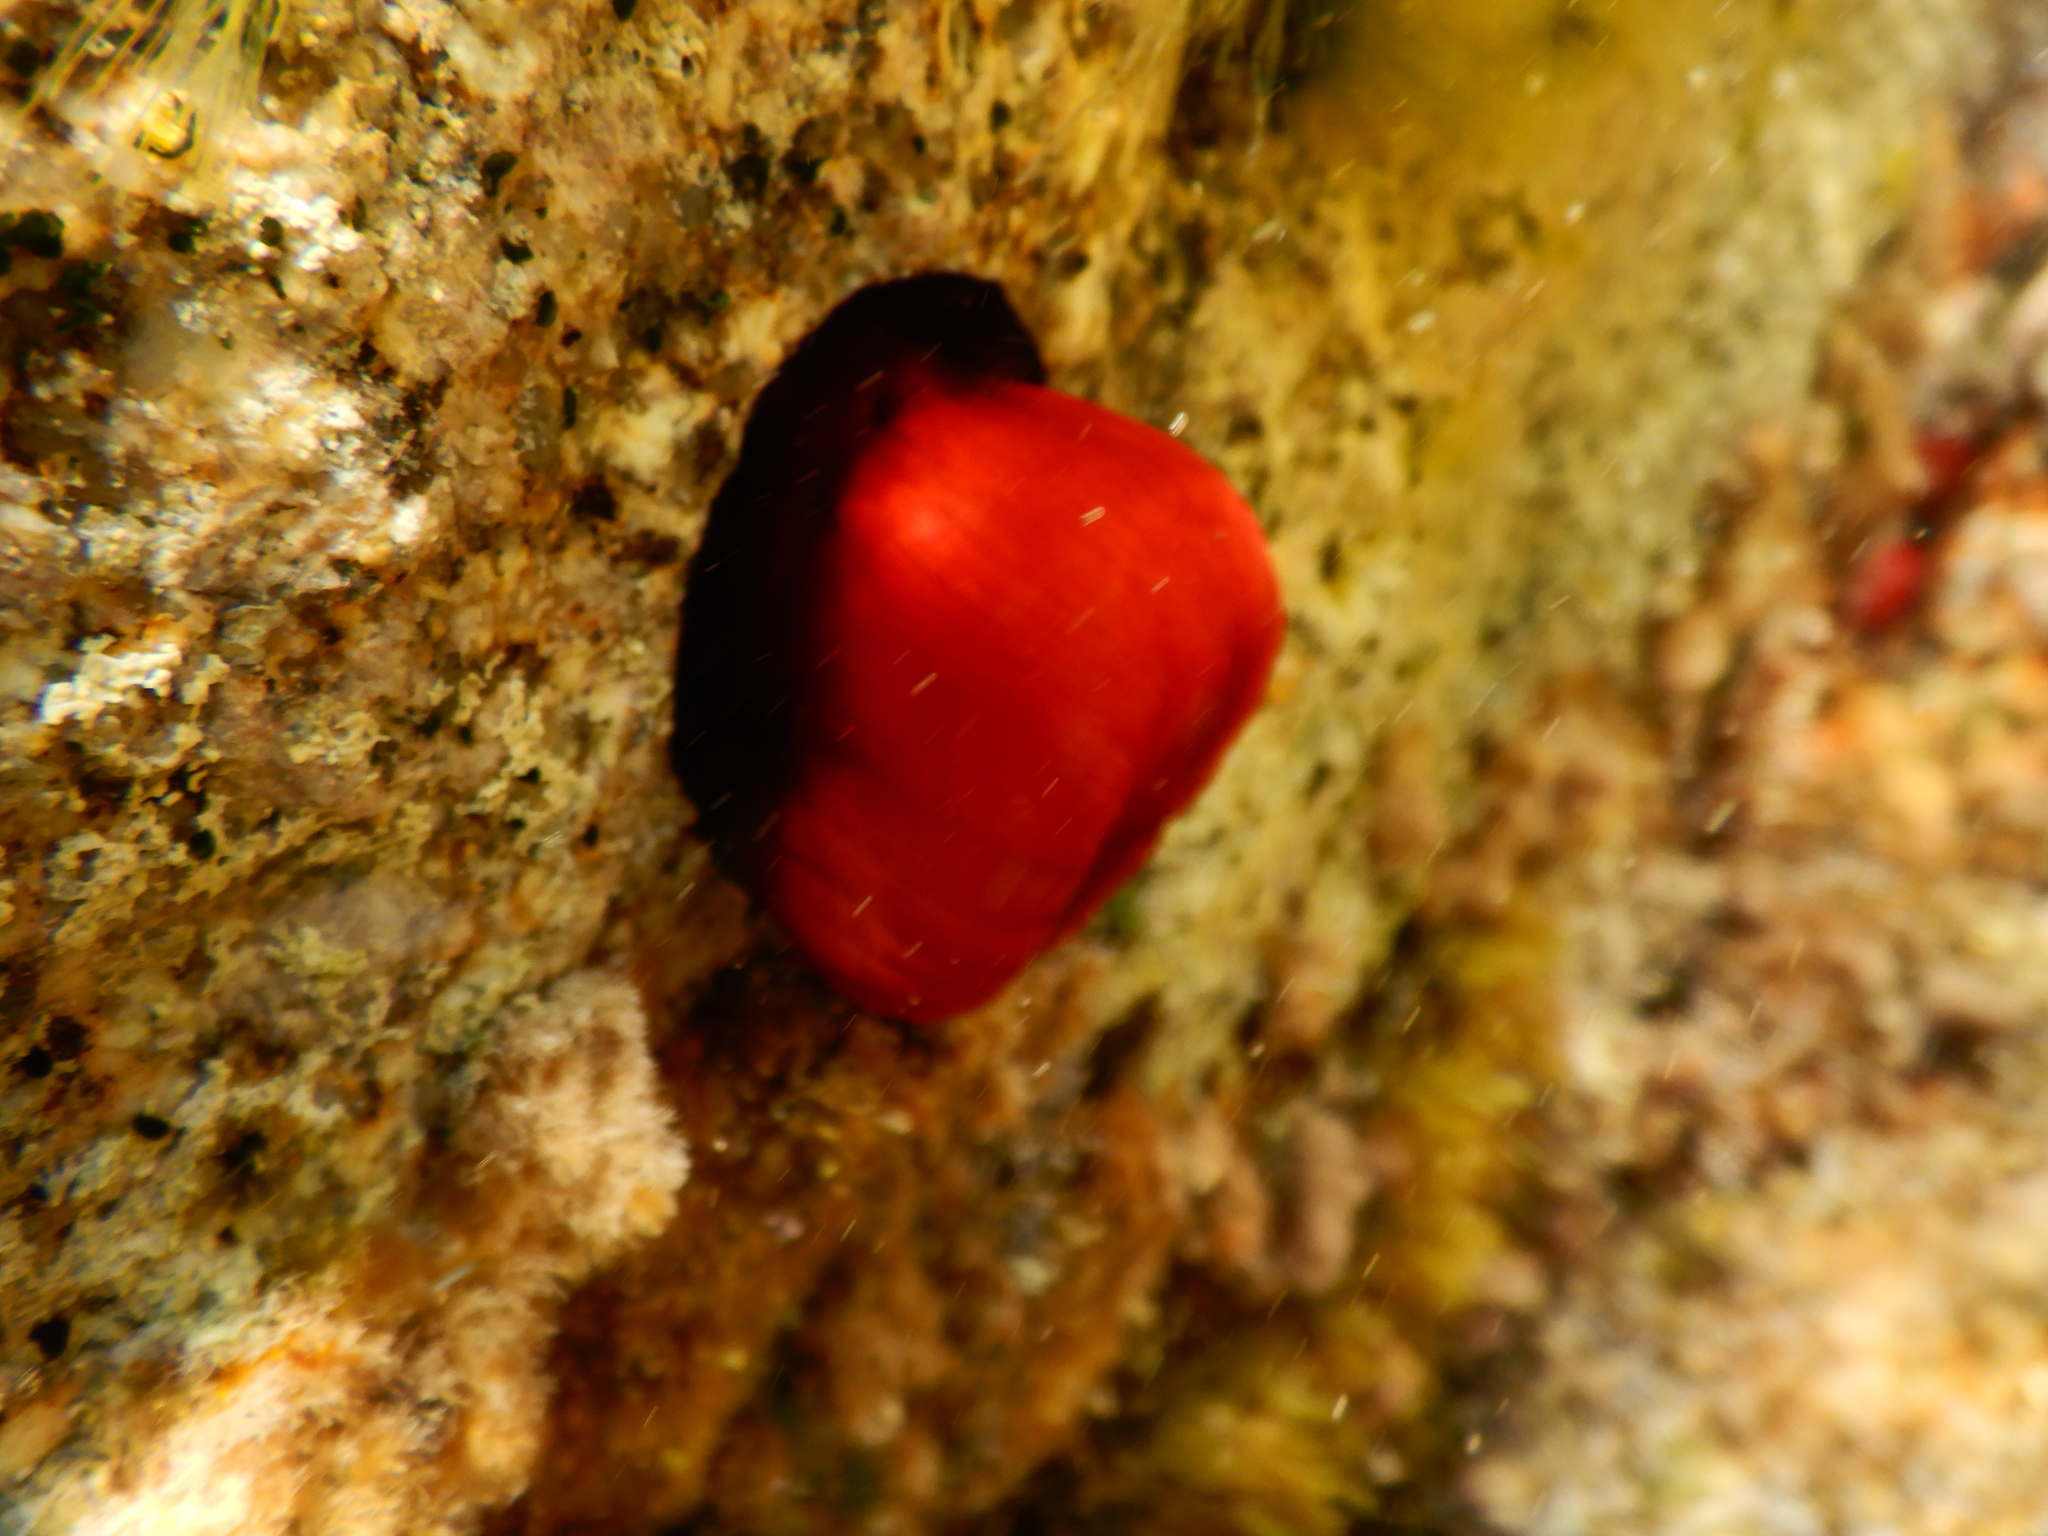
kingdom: Animalia
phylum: Cnidaria
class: Anthozoa
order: Actiniaria
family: Actiniidae
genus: Actinia
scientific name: Actinia mediterranea
